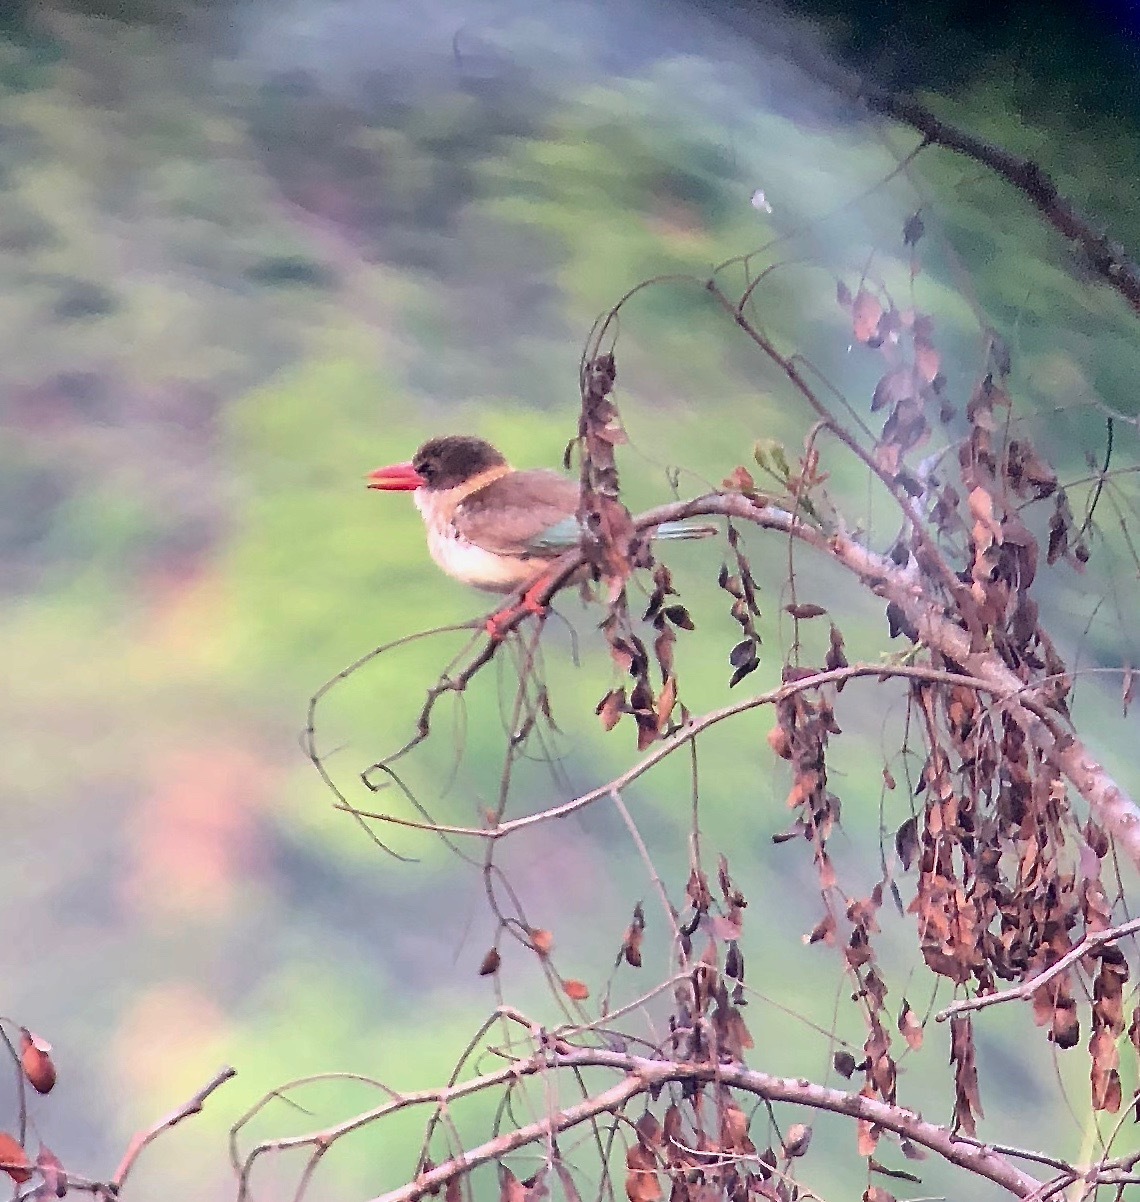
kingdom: Animalia
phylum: Chordata
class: Aves
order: Coraciiformes
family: Alcedinidae
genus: Halcyon
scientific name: Halcyon albiventris
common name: Brown-hooded kingfisher
